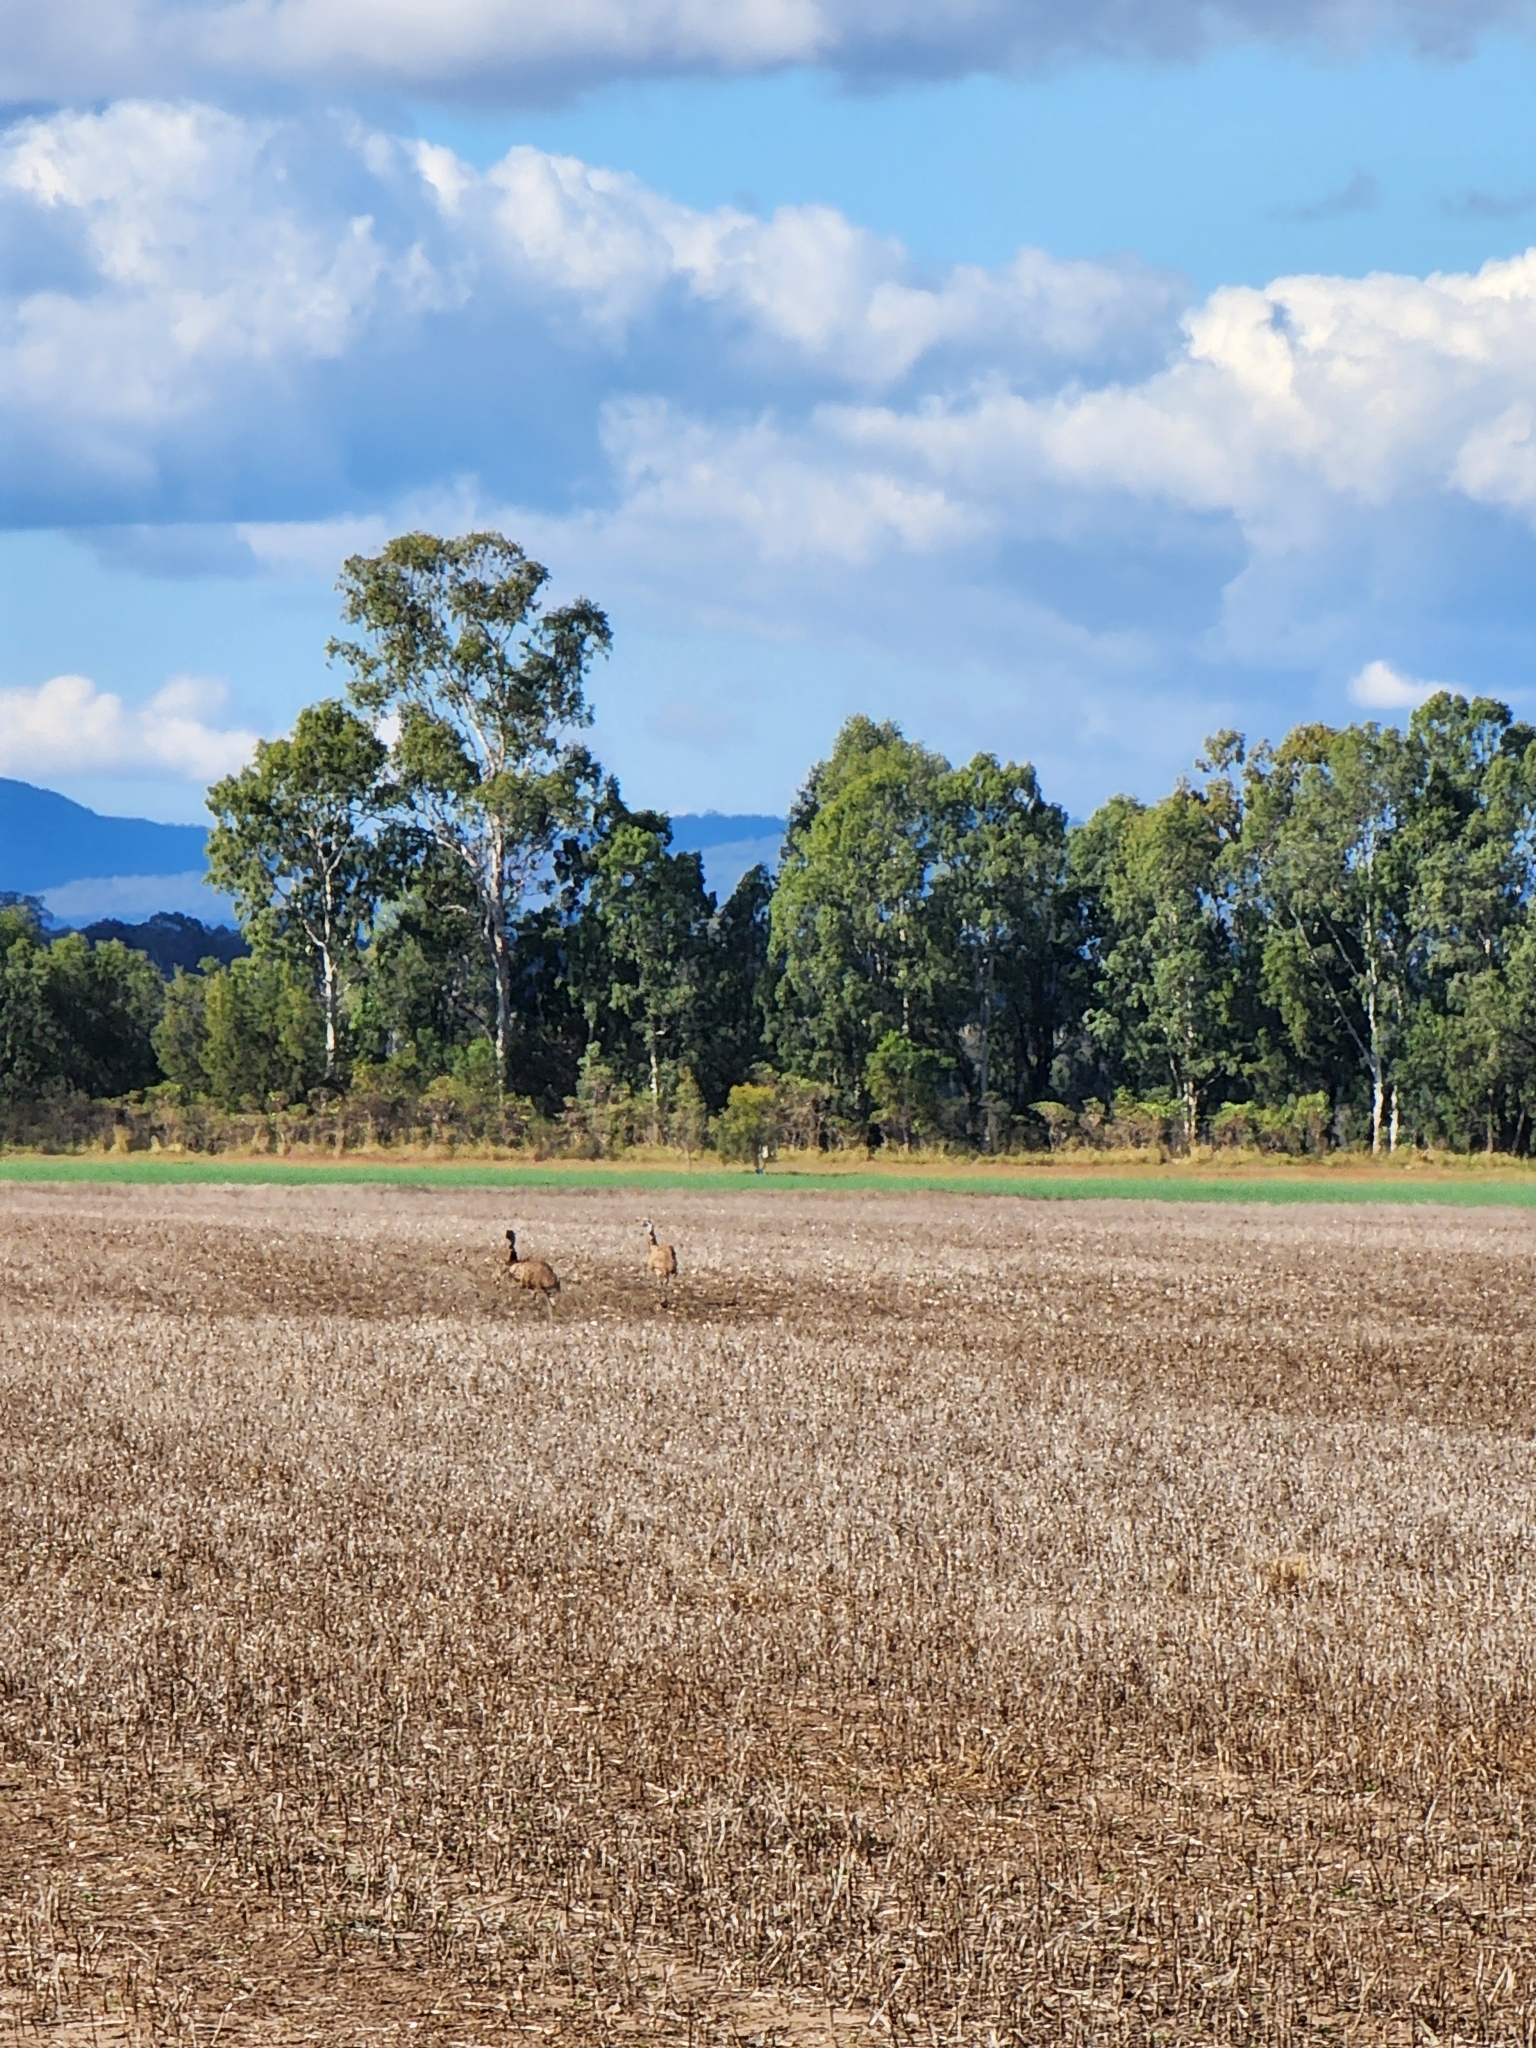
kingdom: Animalia
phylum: Chordata
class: Aves
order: Casuariiformes
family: Dromaiidae
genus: Dromaius
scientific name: Dromaius novaehollandiae
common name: Emu
